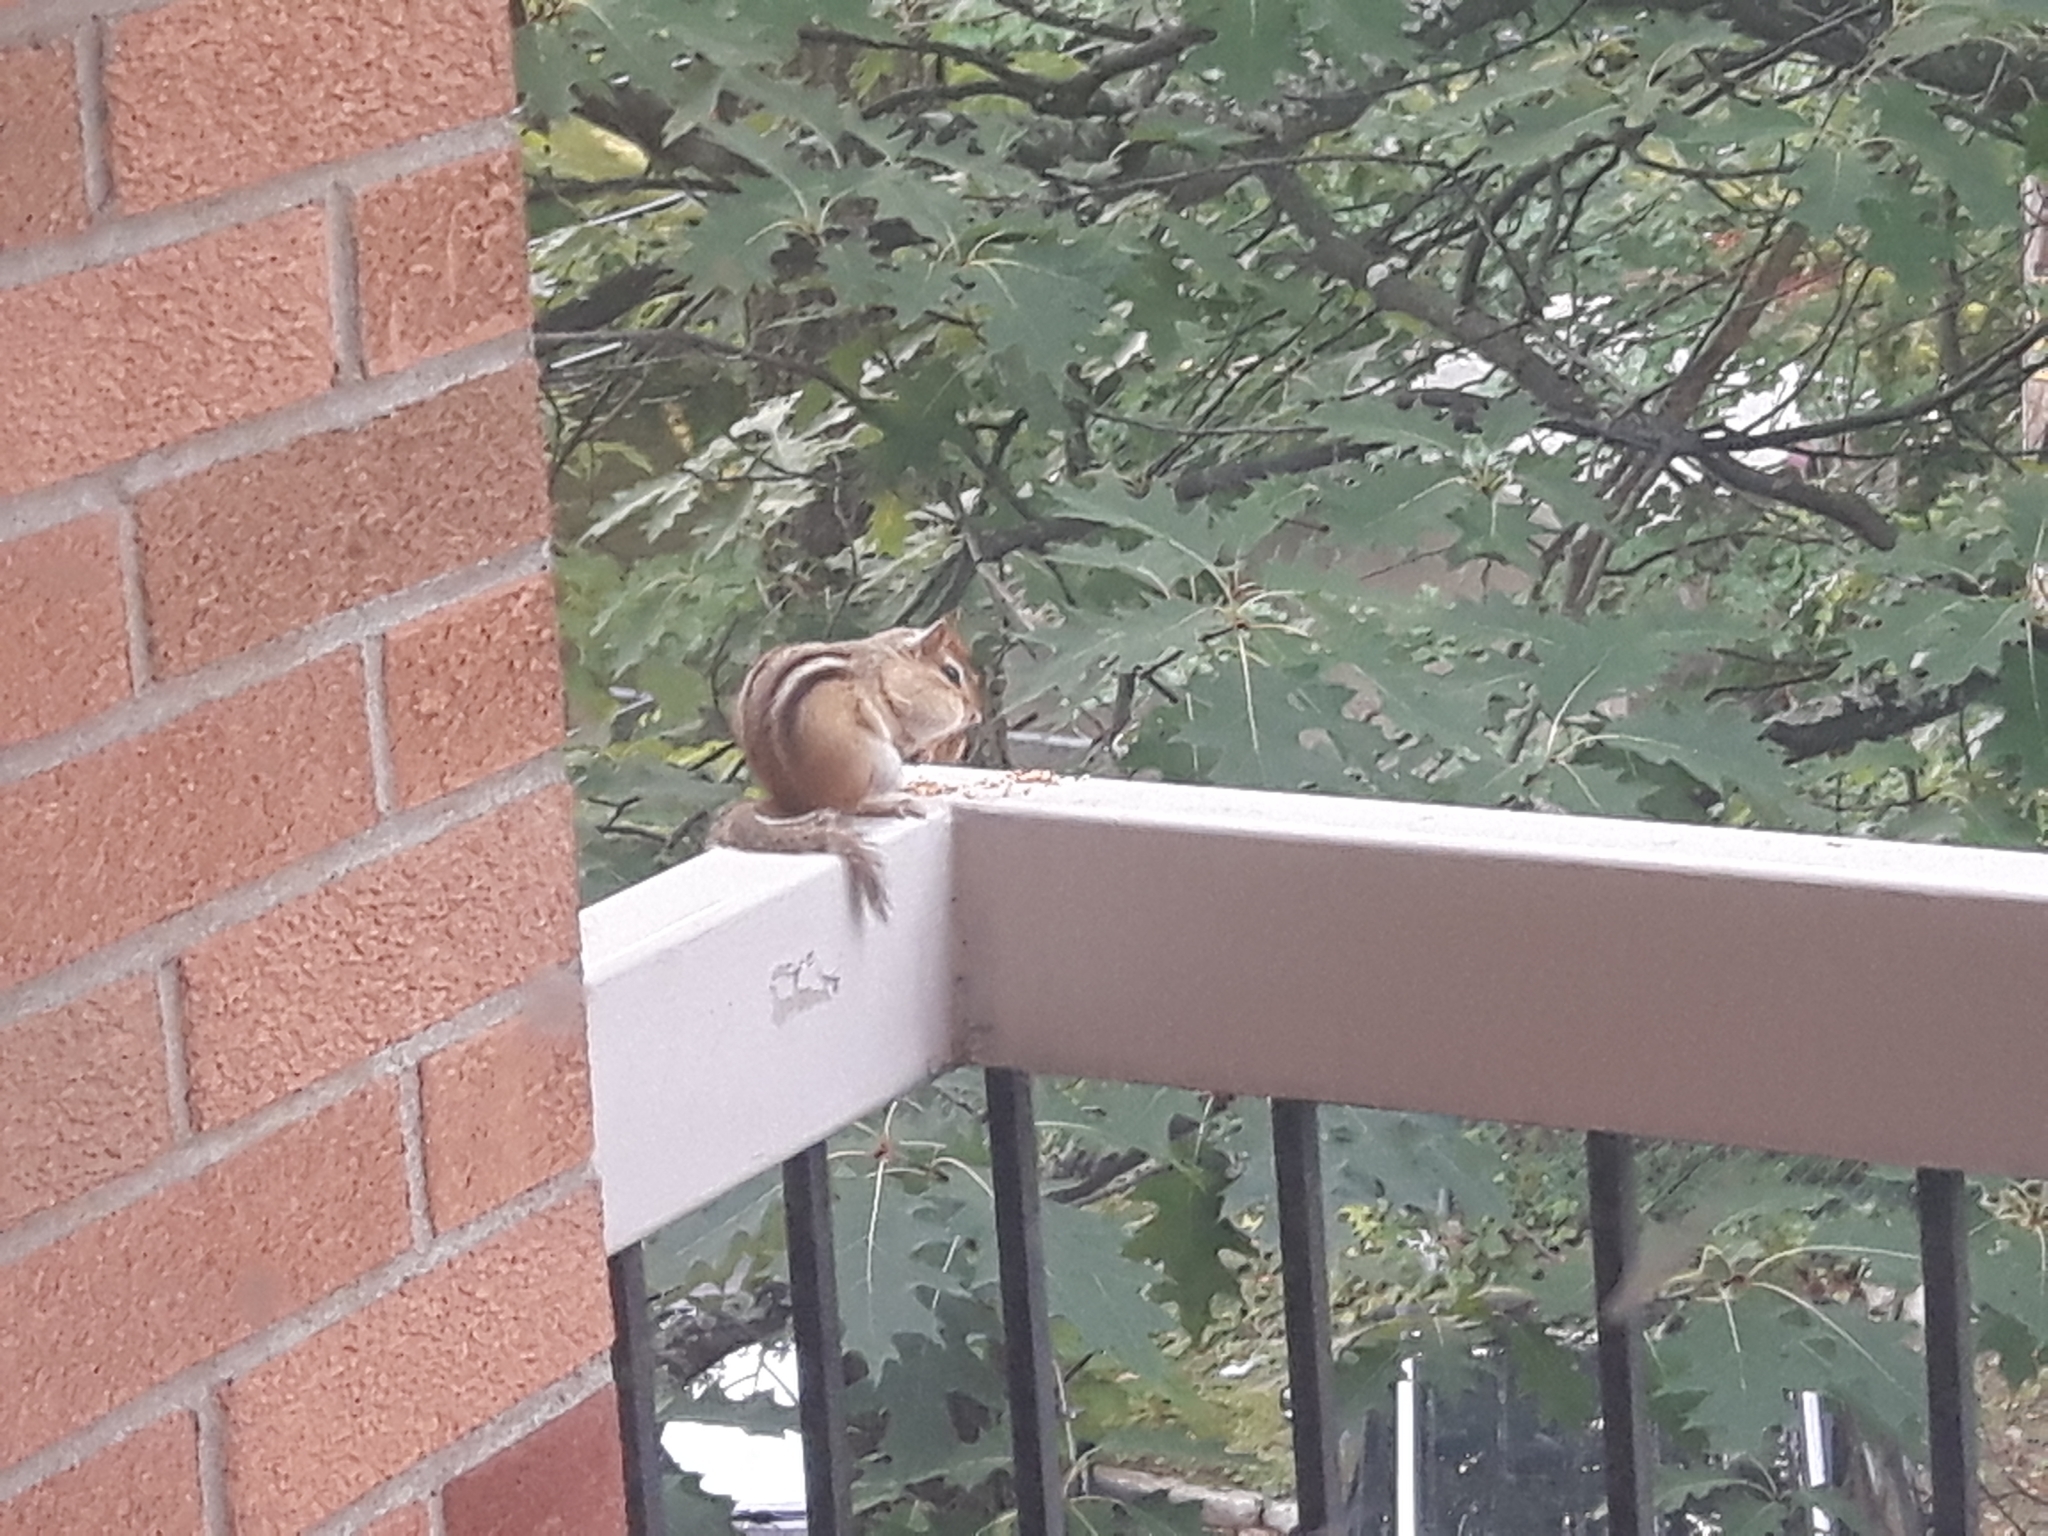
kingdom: Animalia
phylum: Chordata
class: Mammalia
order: Rodentia
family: Sciuridae
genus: Tamias
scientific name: Tamias striatus
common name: Eastern chipmunk
